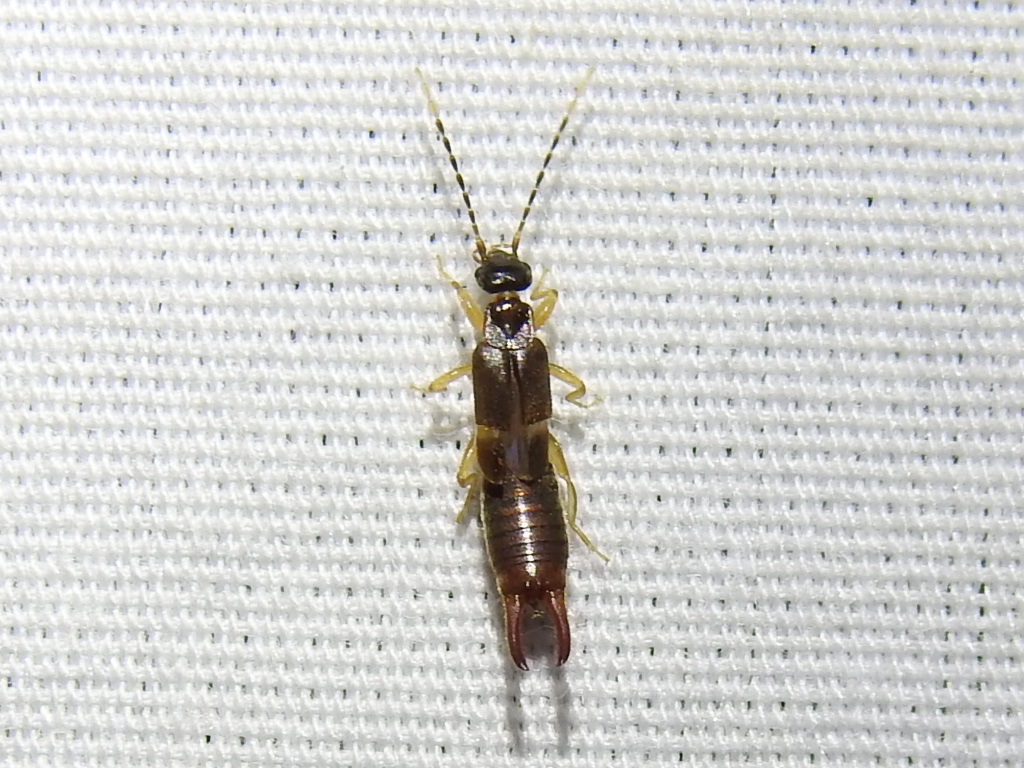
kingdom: Animalia
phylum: Arthropoda
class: Insecta
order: Dermaptera
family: Spongiphoridae
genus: Labia
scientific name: Labia minor
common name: Lesser earwig
